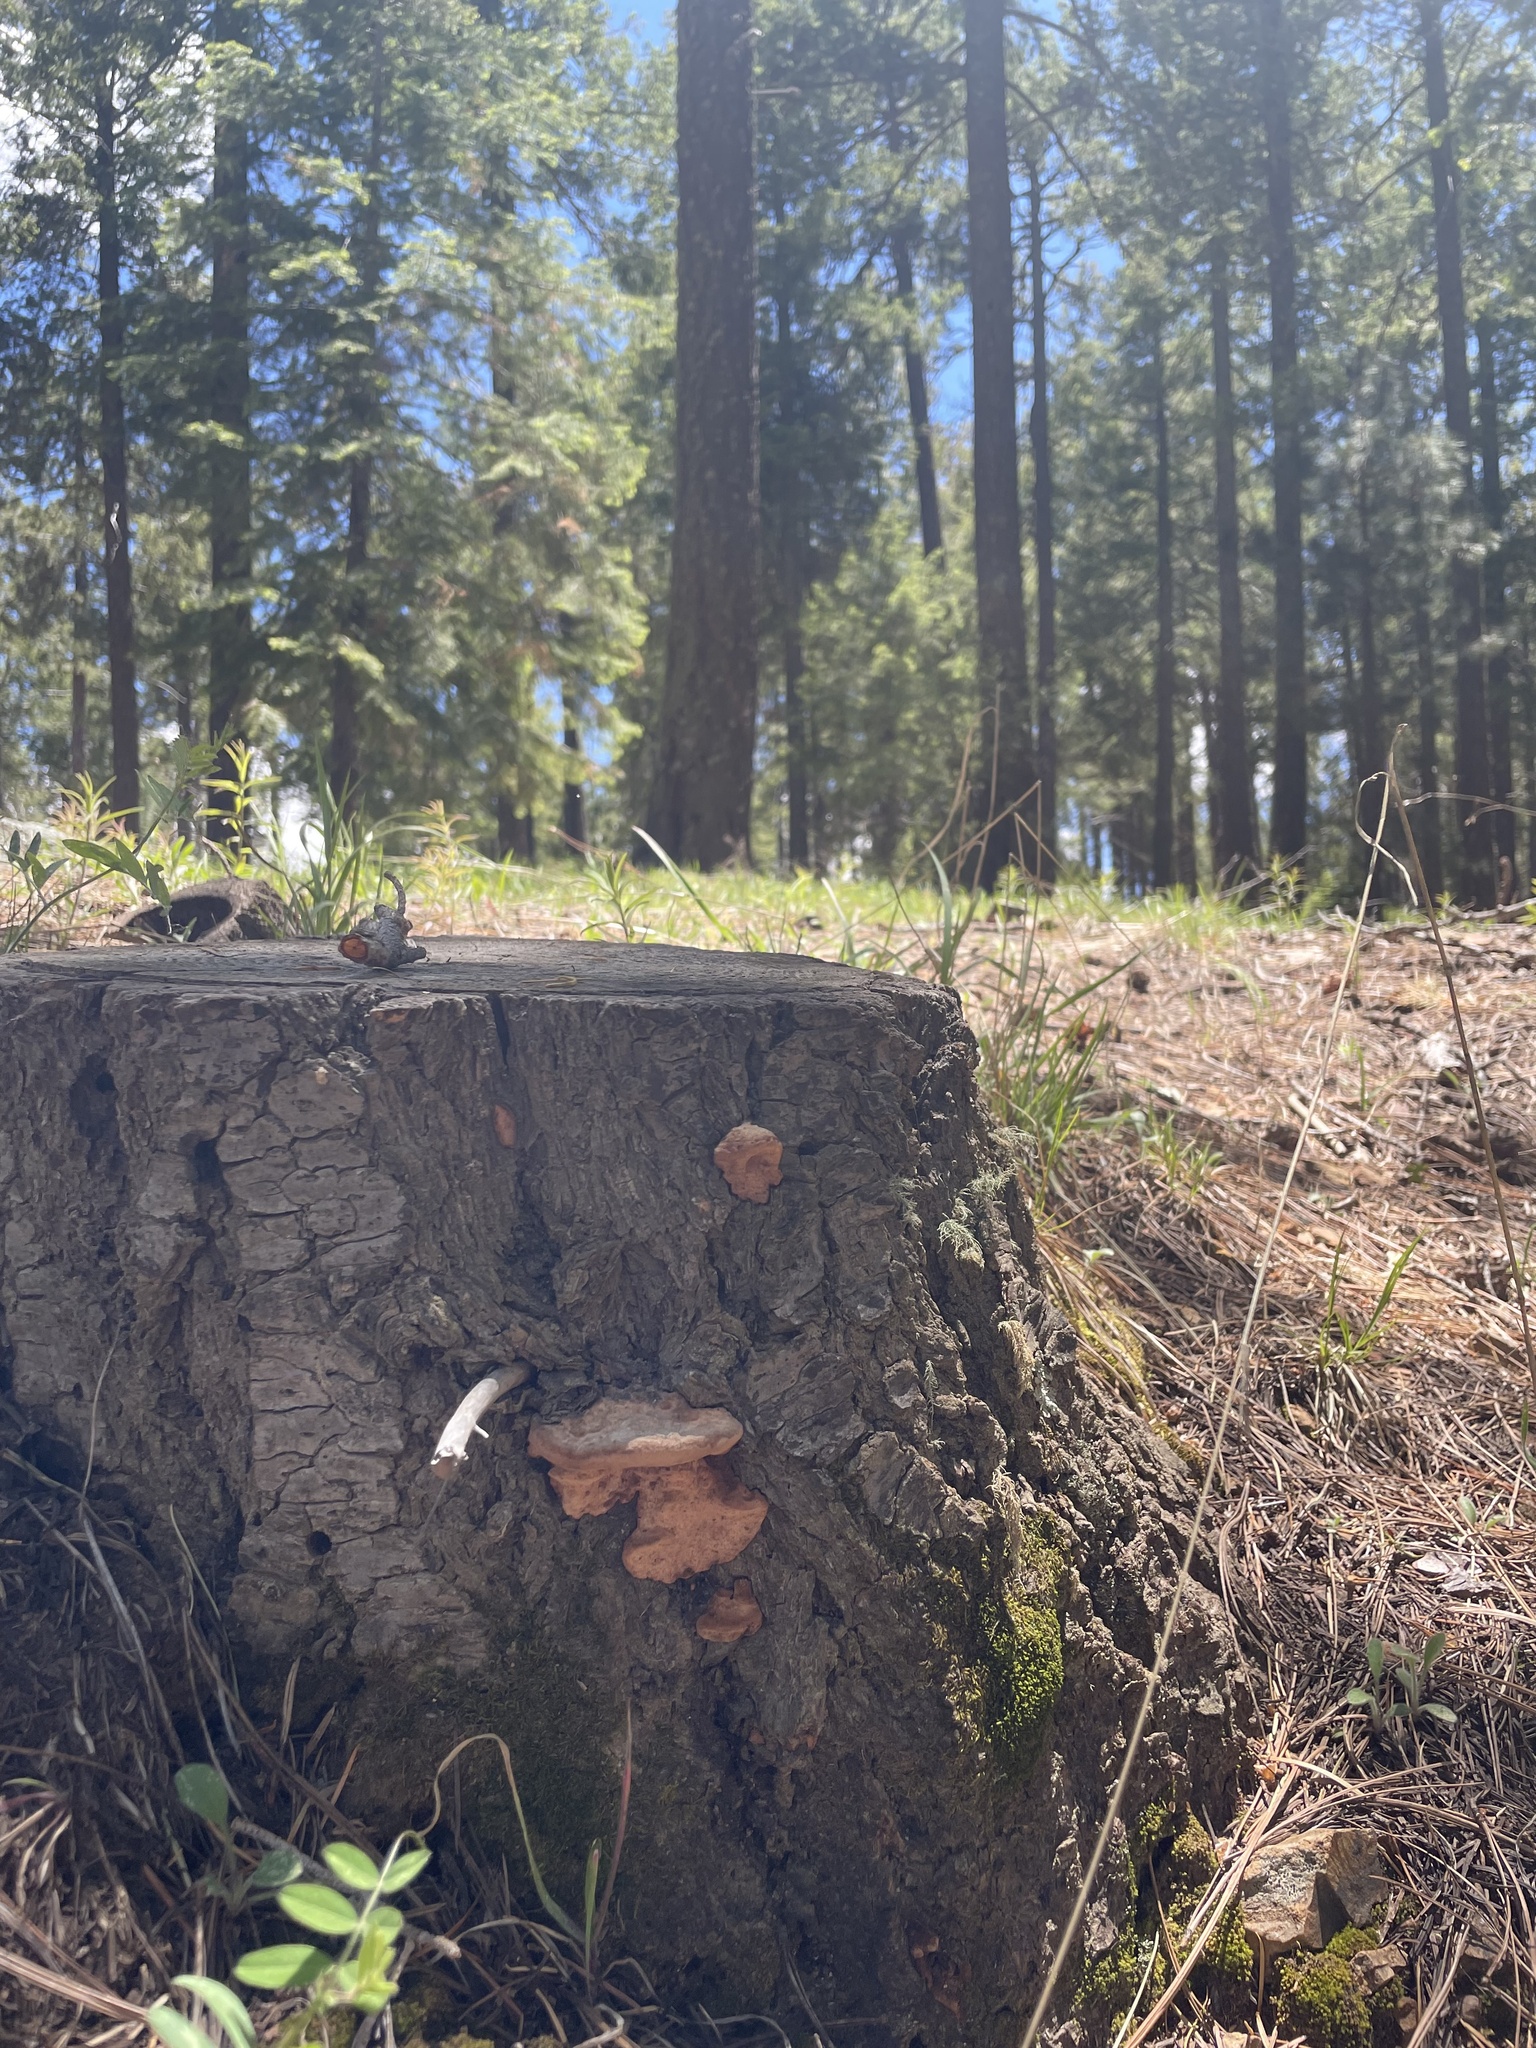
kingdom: Fungi
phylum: Basidiomycota
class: Agaricomycetes
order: Polyporales
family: Fomitopsidaceae
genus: Rhodofomes
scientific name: Rhodofomes cajanderi
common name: Rosy conk
